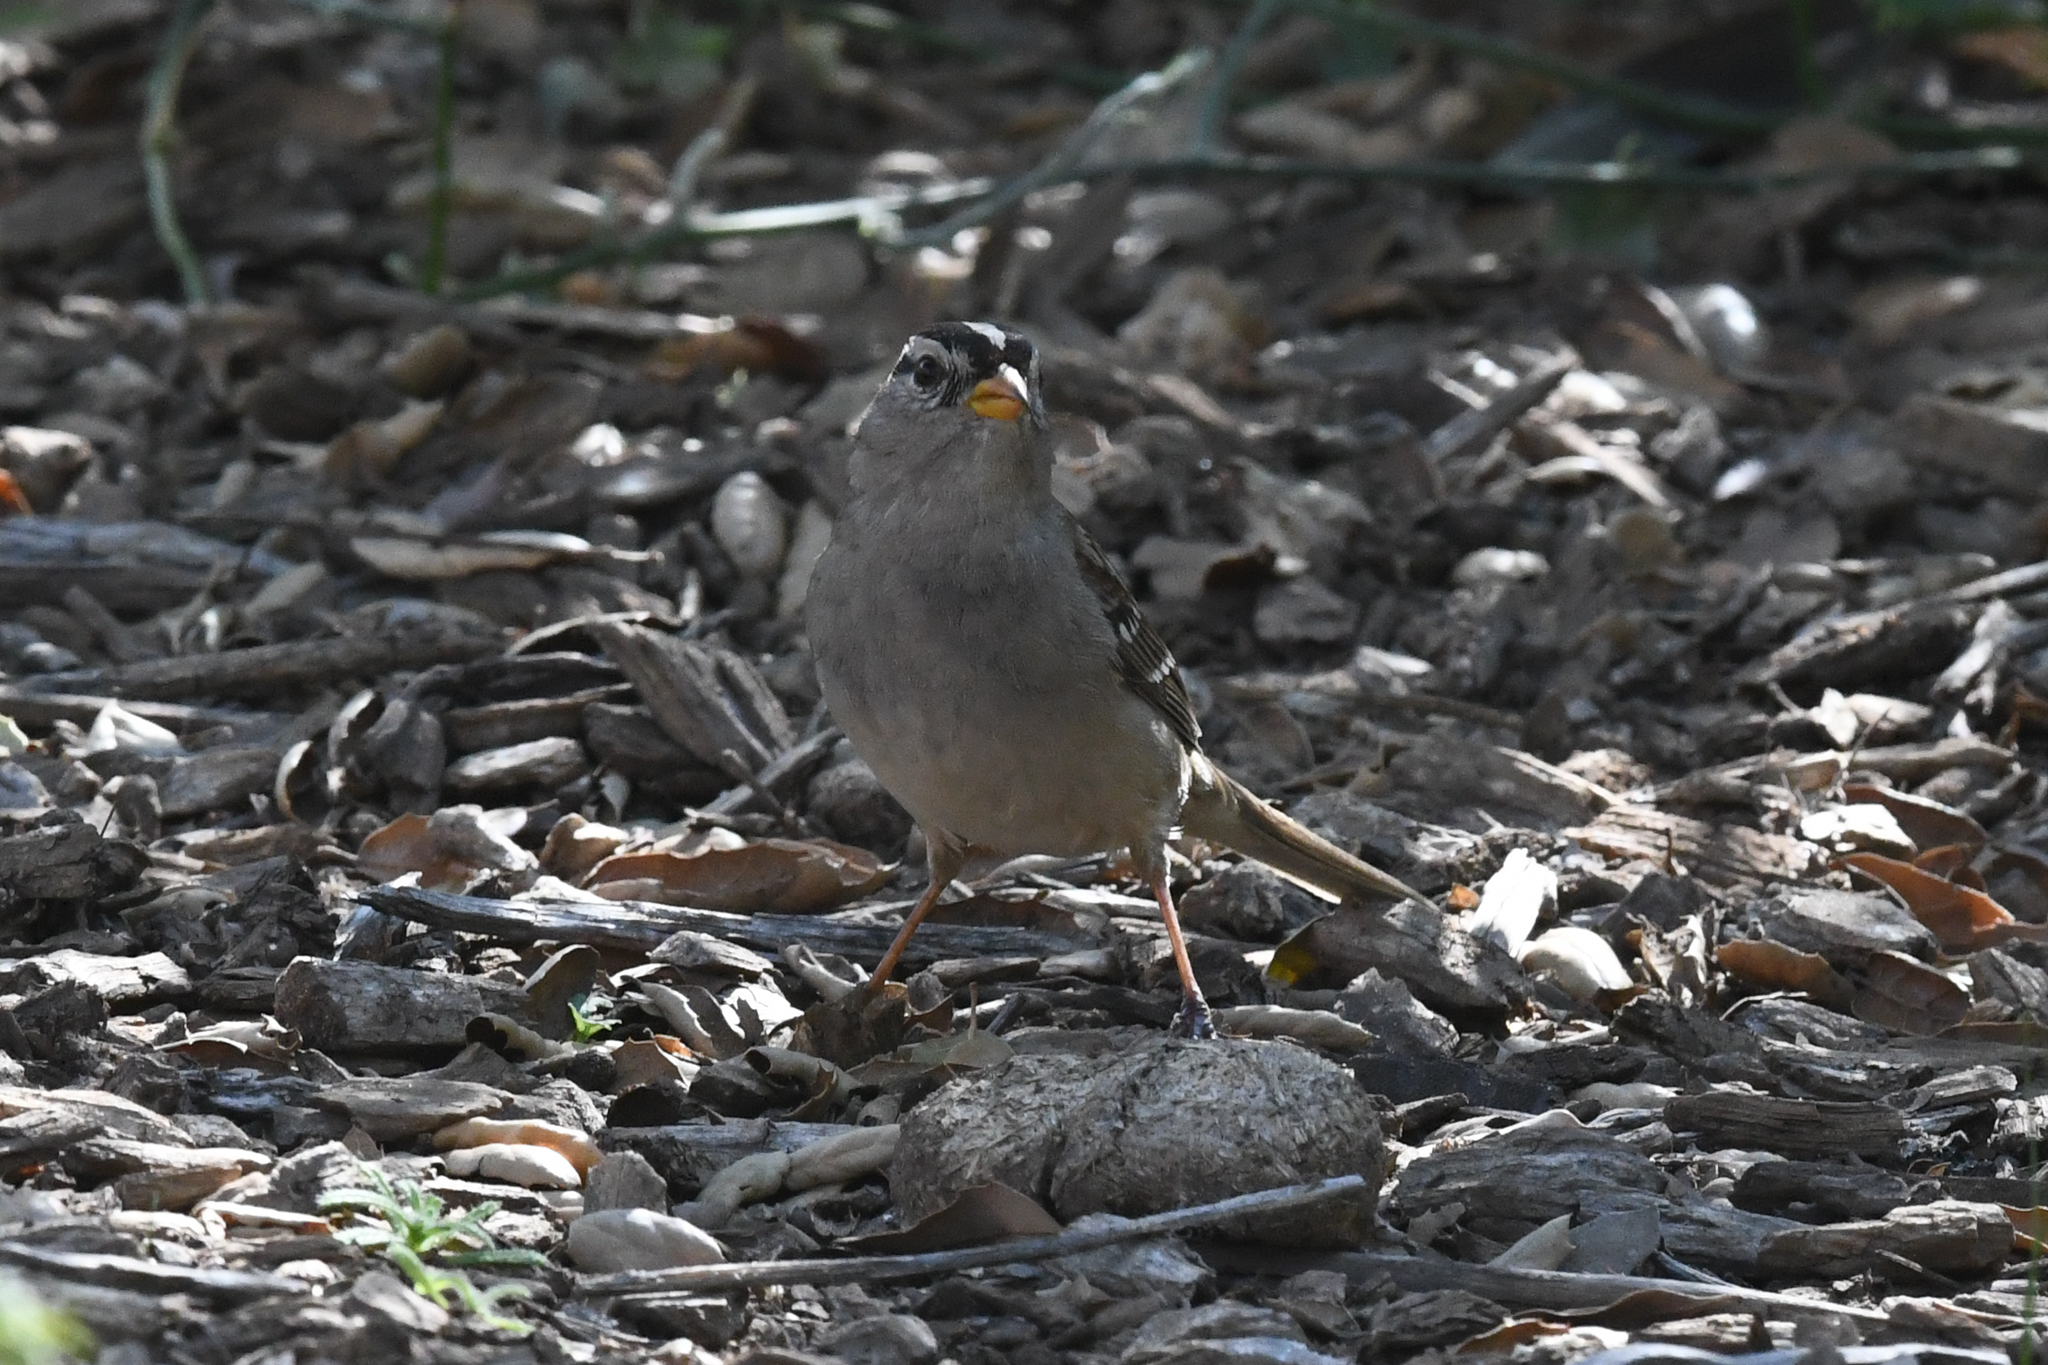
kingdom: Animalia
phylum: Chordata
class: Aves
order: Passeriformes
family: Passerellidae
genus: Zonotrichia
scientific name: Zonotrichia leucophrys
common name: White-crowned sparrow
